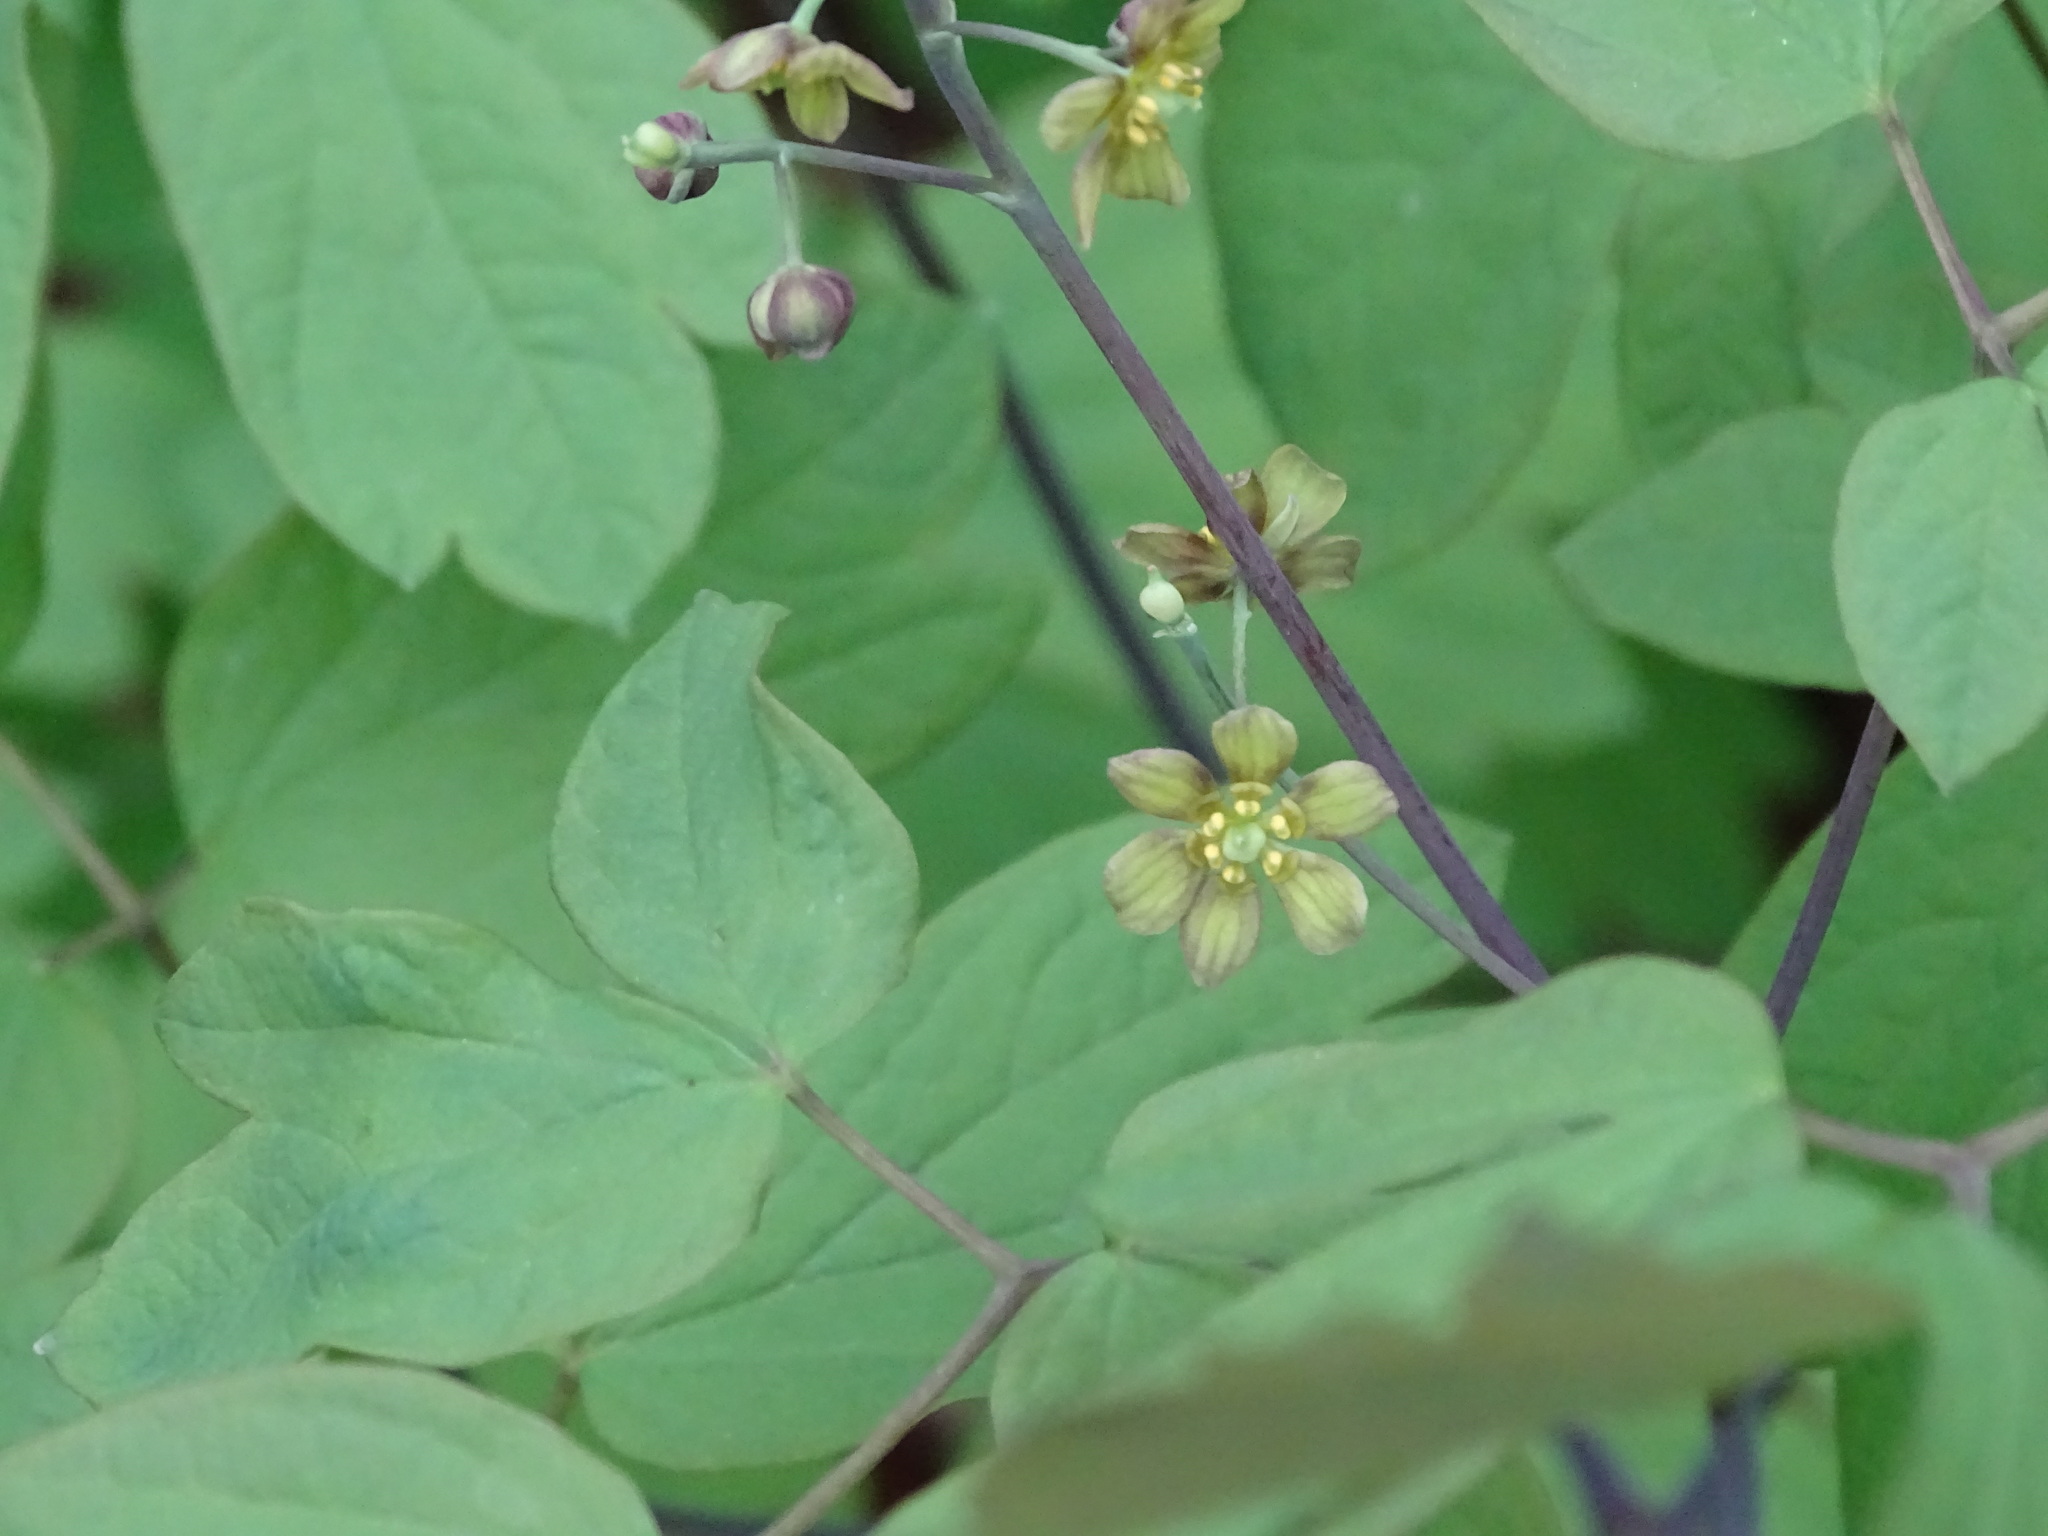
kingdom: Plantae
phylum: Tracheophyta
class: Magnoliopsida
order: Ranunculales
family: Berberidaceae
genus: Caulophyllum
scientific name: Caulophyllum thalictroides
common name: Blue cohosh
